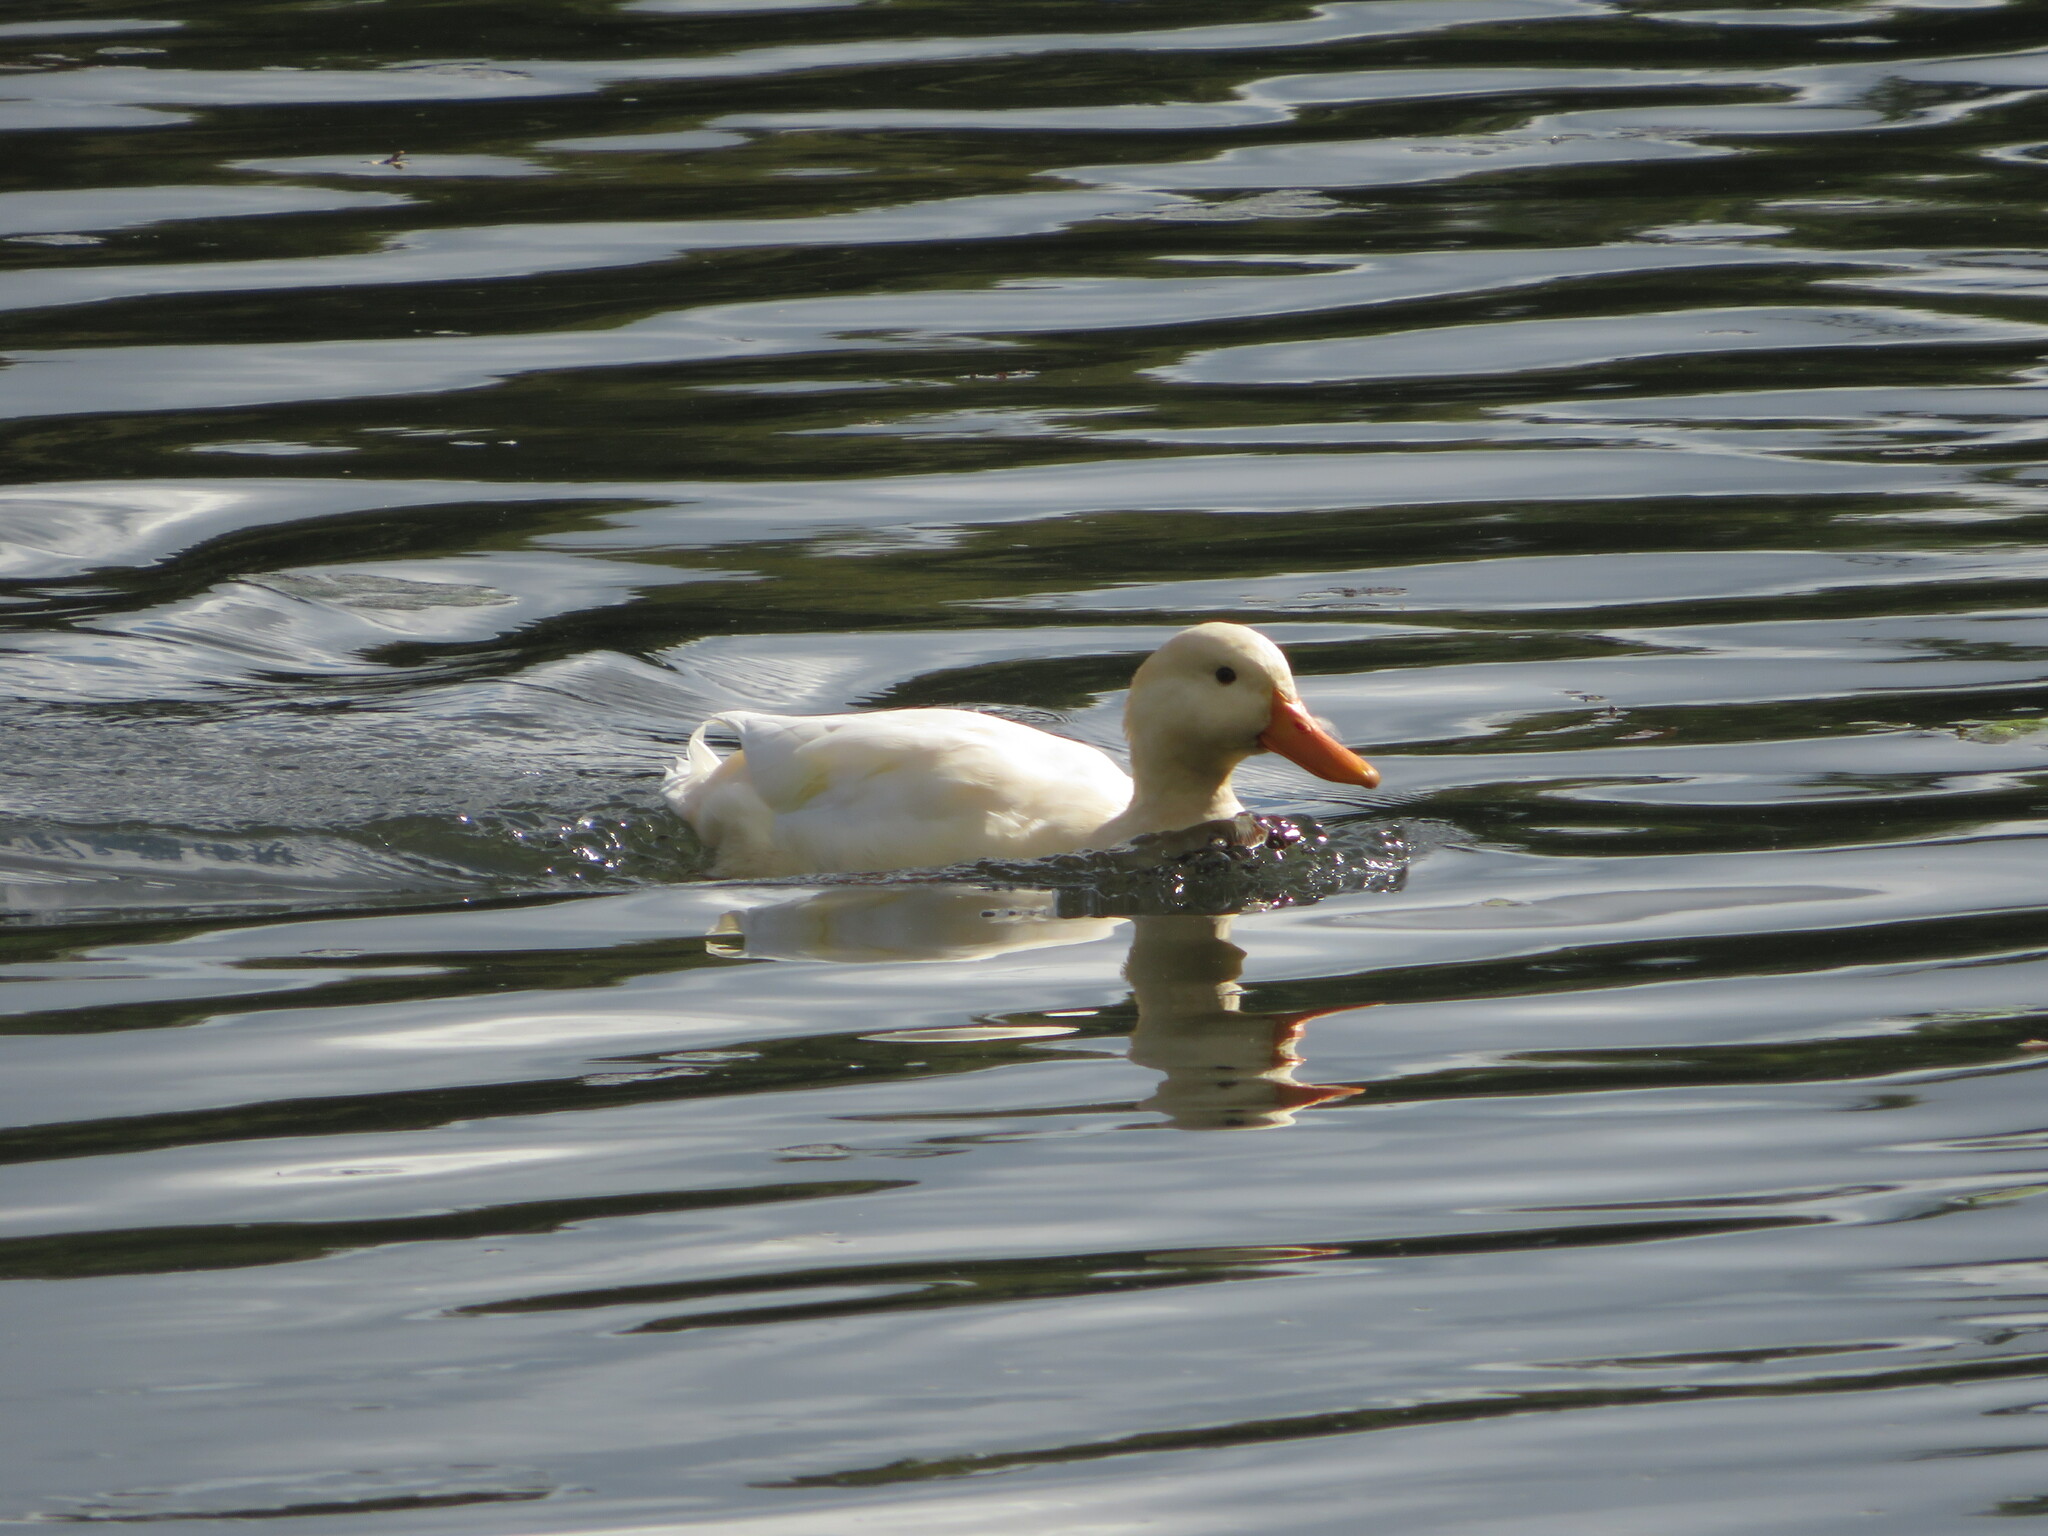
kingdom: Animalia
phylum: Chordata
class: Aves
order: Anseriformes
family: Anatidae
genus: Anas
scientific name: Anas platyrhynchos
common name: Mallard
